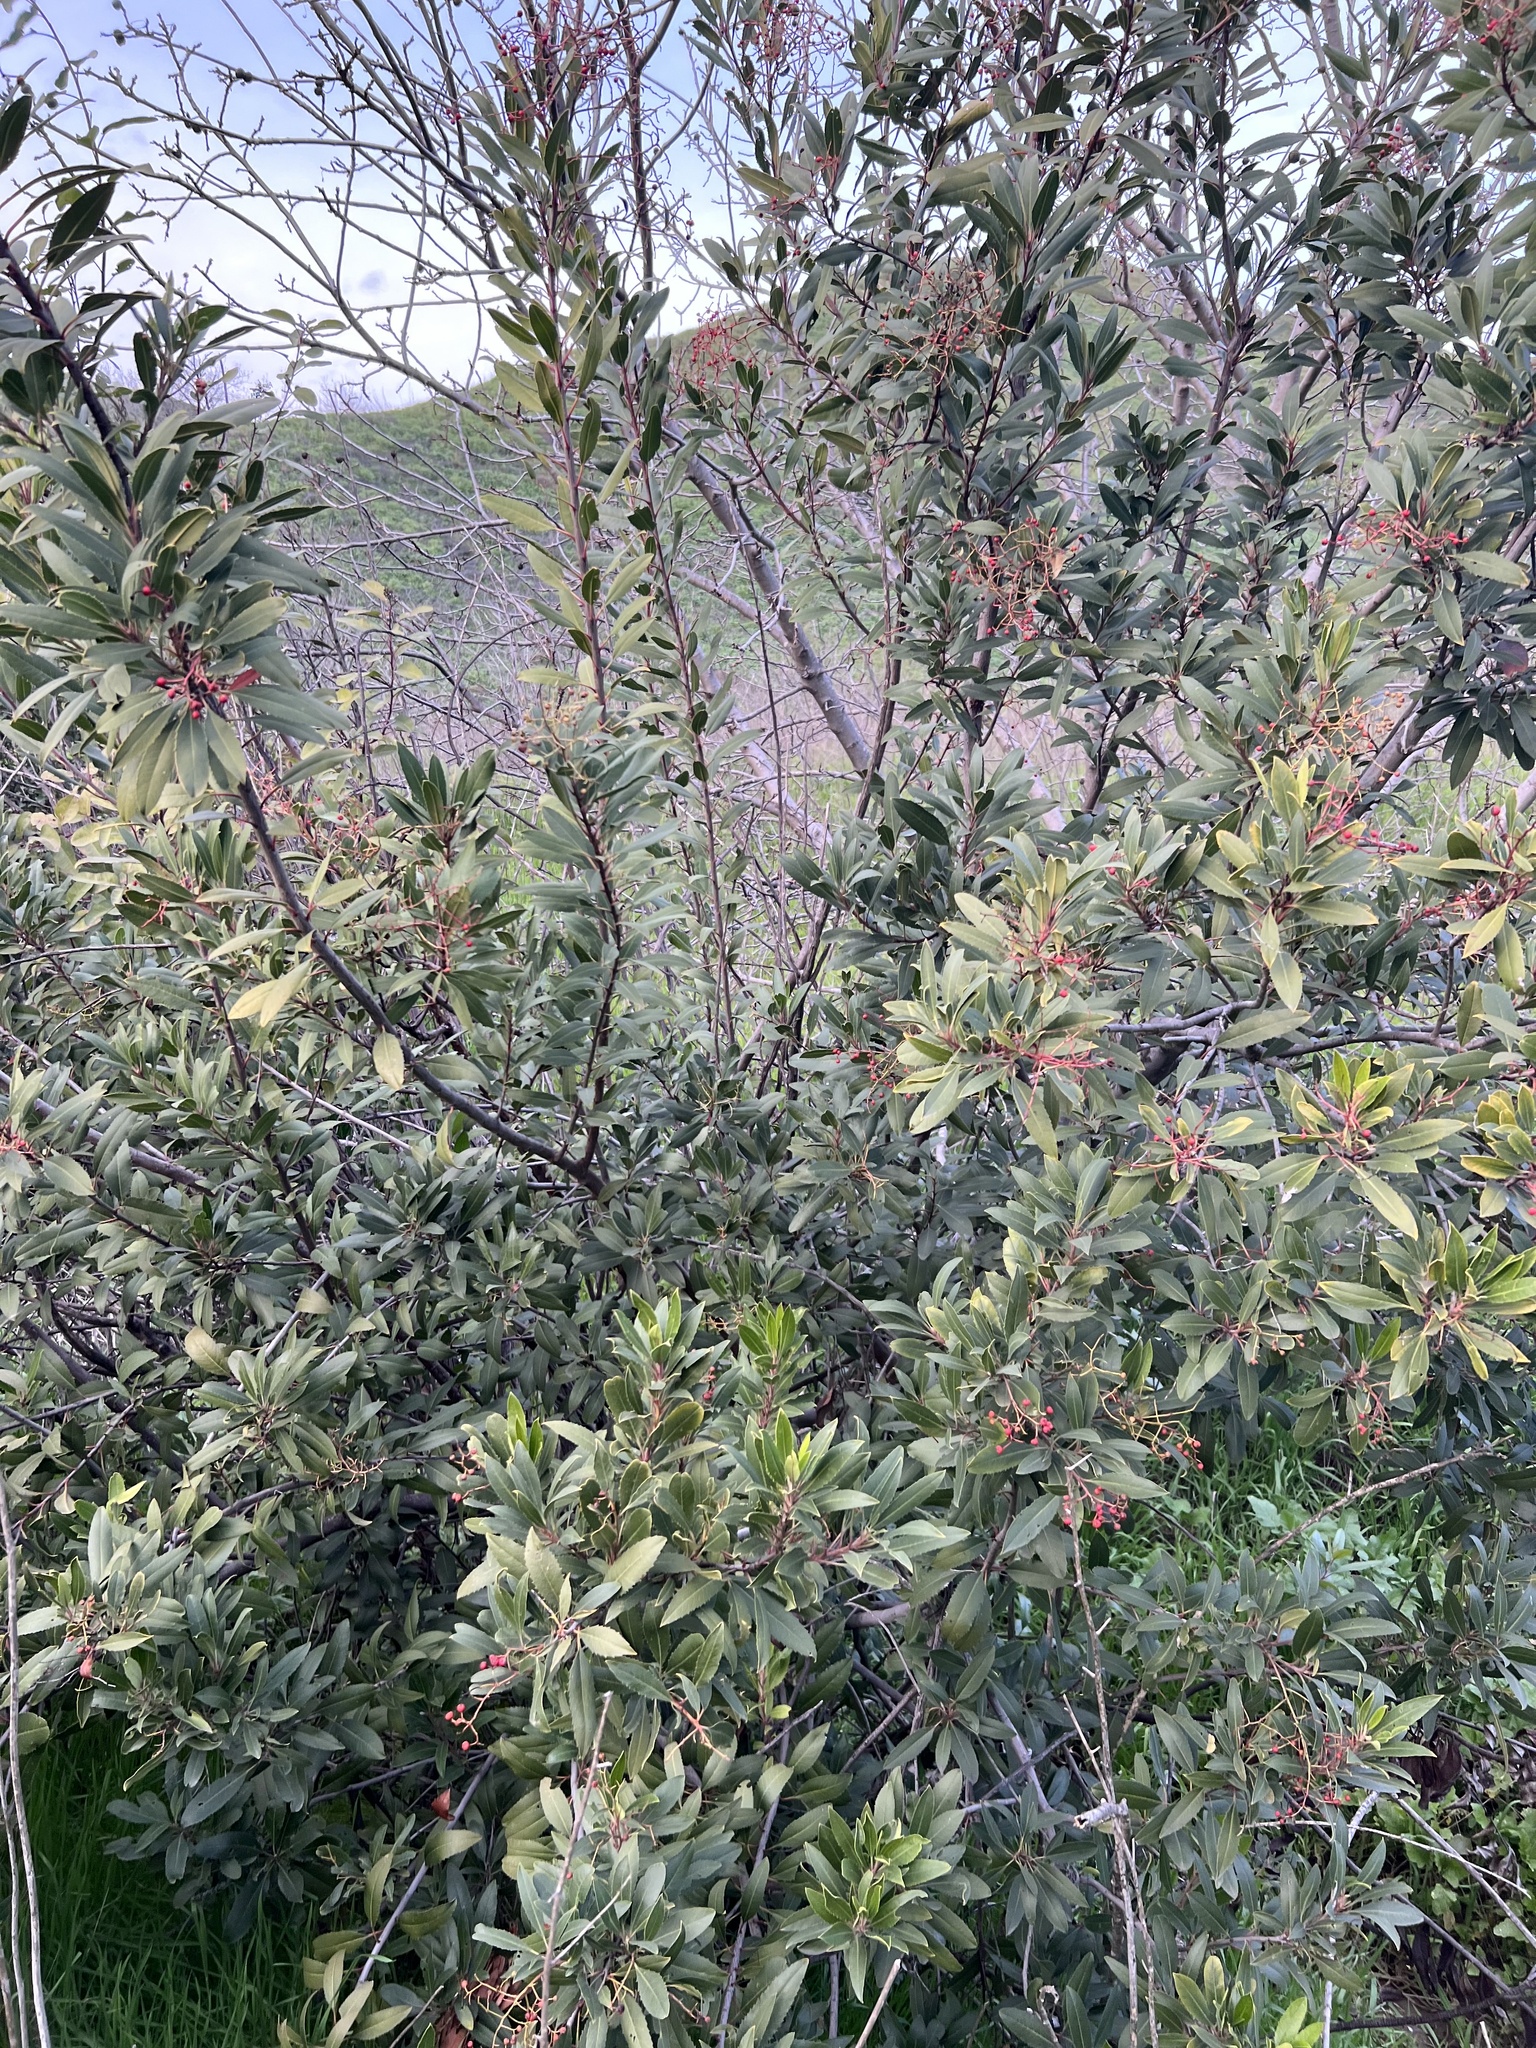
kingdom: Plantae
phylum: Tracheophyta
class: Magnoliopsida
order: Rosales
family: Rosaceae
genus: Heteromeles
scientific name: Heteromeles arbutifolia
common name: California-holly
